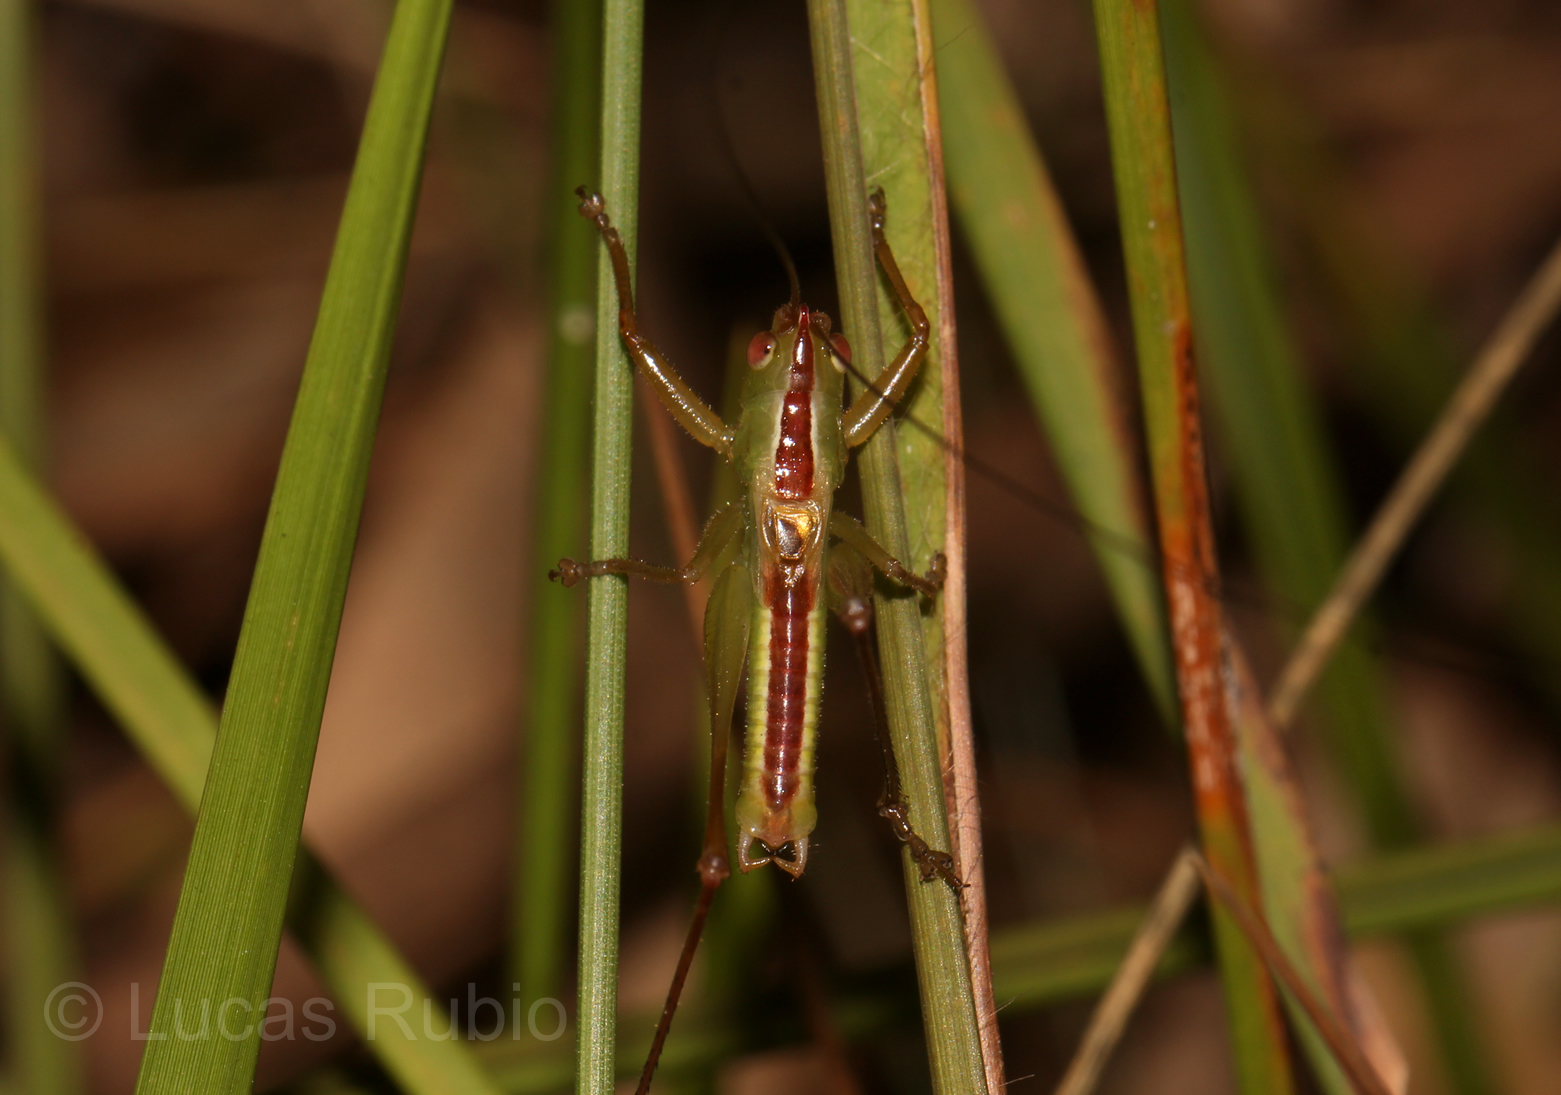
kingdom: Animalia
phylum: Arthropoda
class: Insecta
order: Orthoptera
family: Tettigoniidae
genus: Conocephalus
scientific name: Conocephalus
